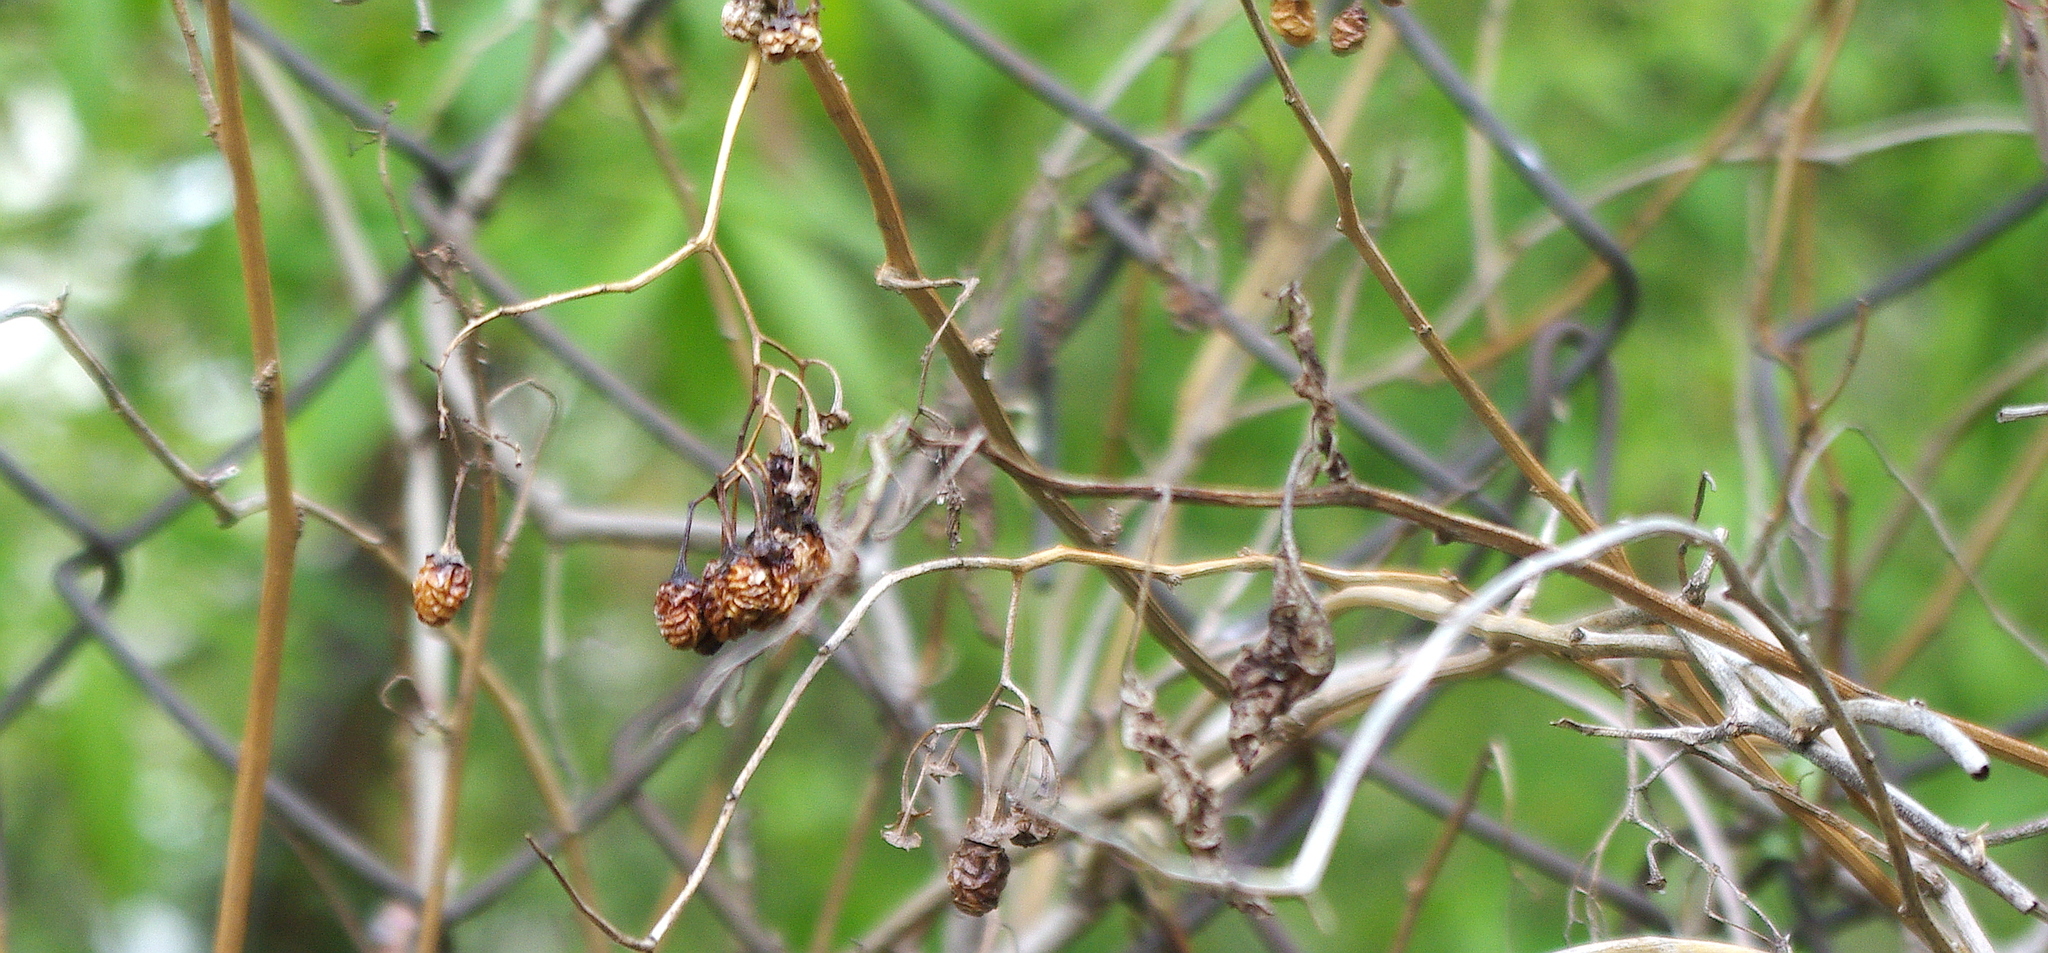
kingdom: Plantae
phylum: Tracheophyta
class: Magnoliopsida
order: Solanales
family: Solanaceae
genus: Solanum
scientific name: Solanum dulcamara
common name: Climbing nightshade
